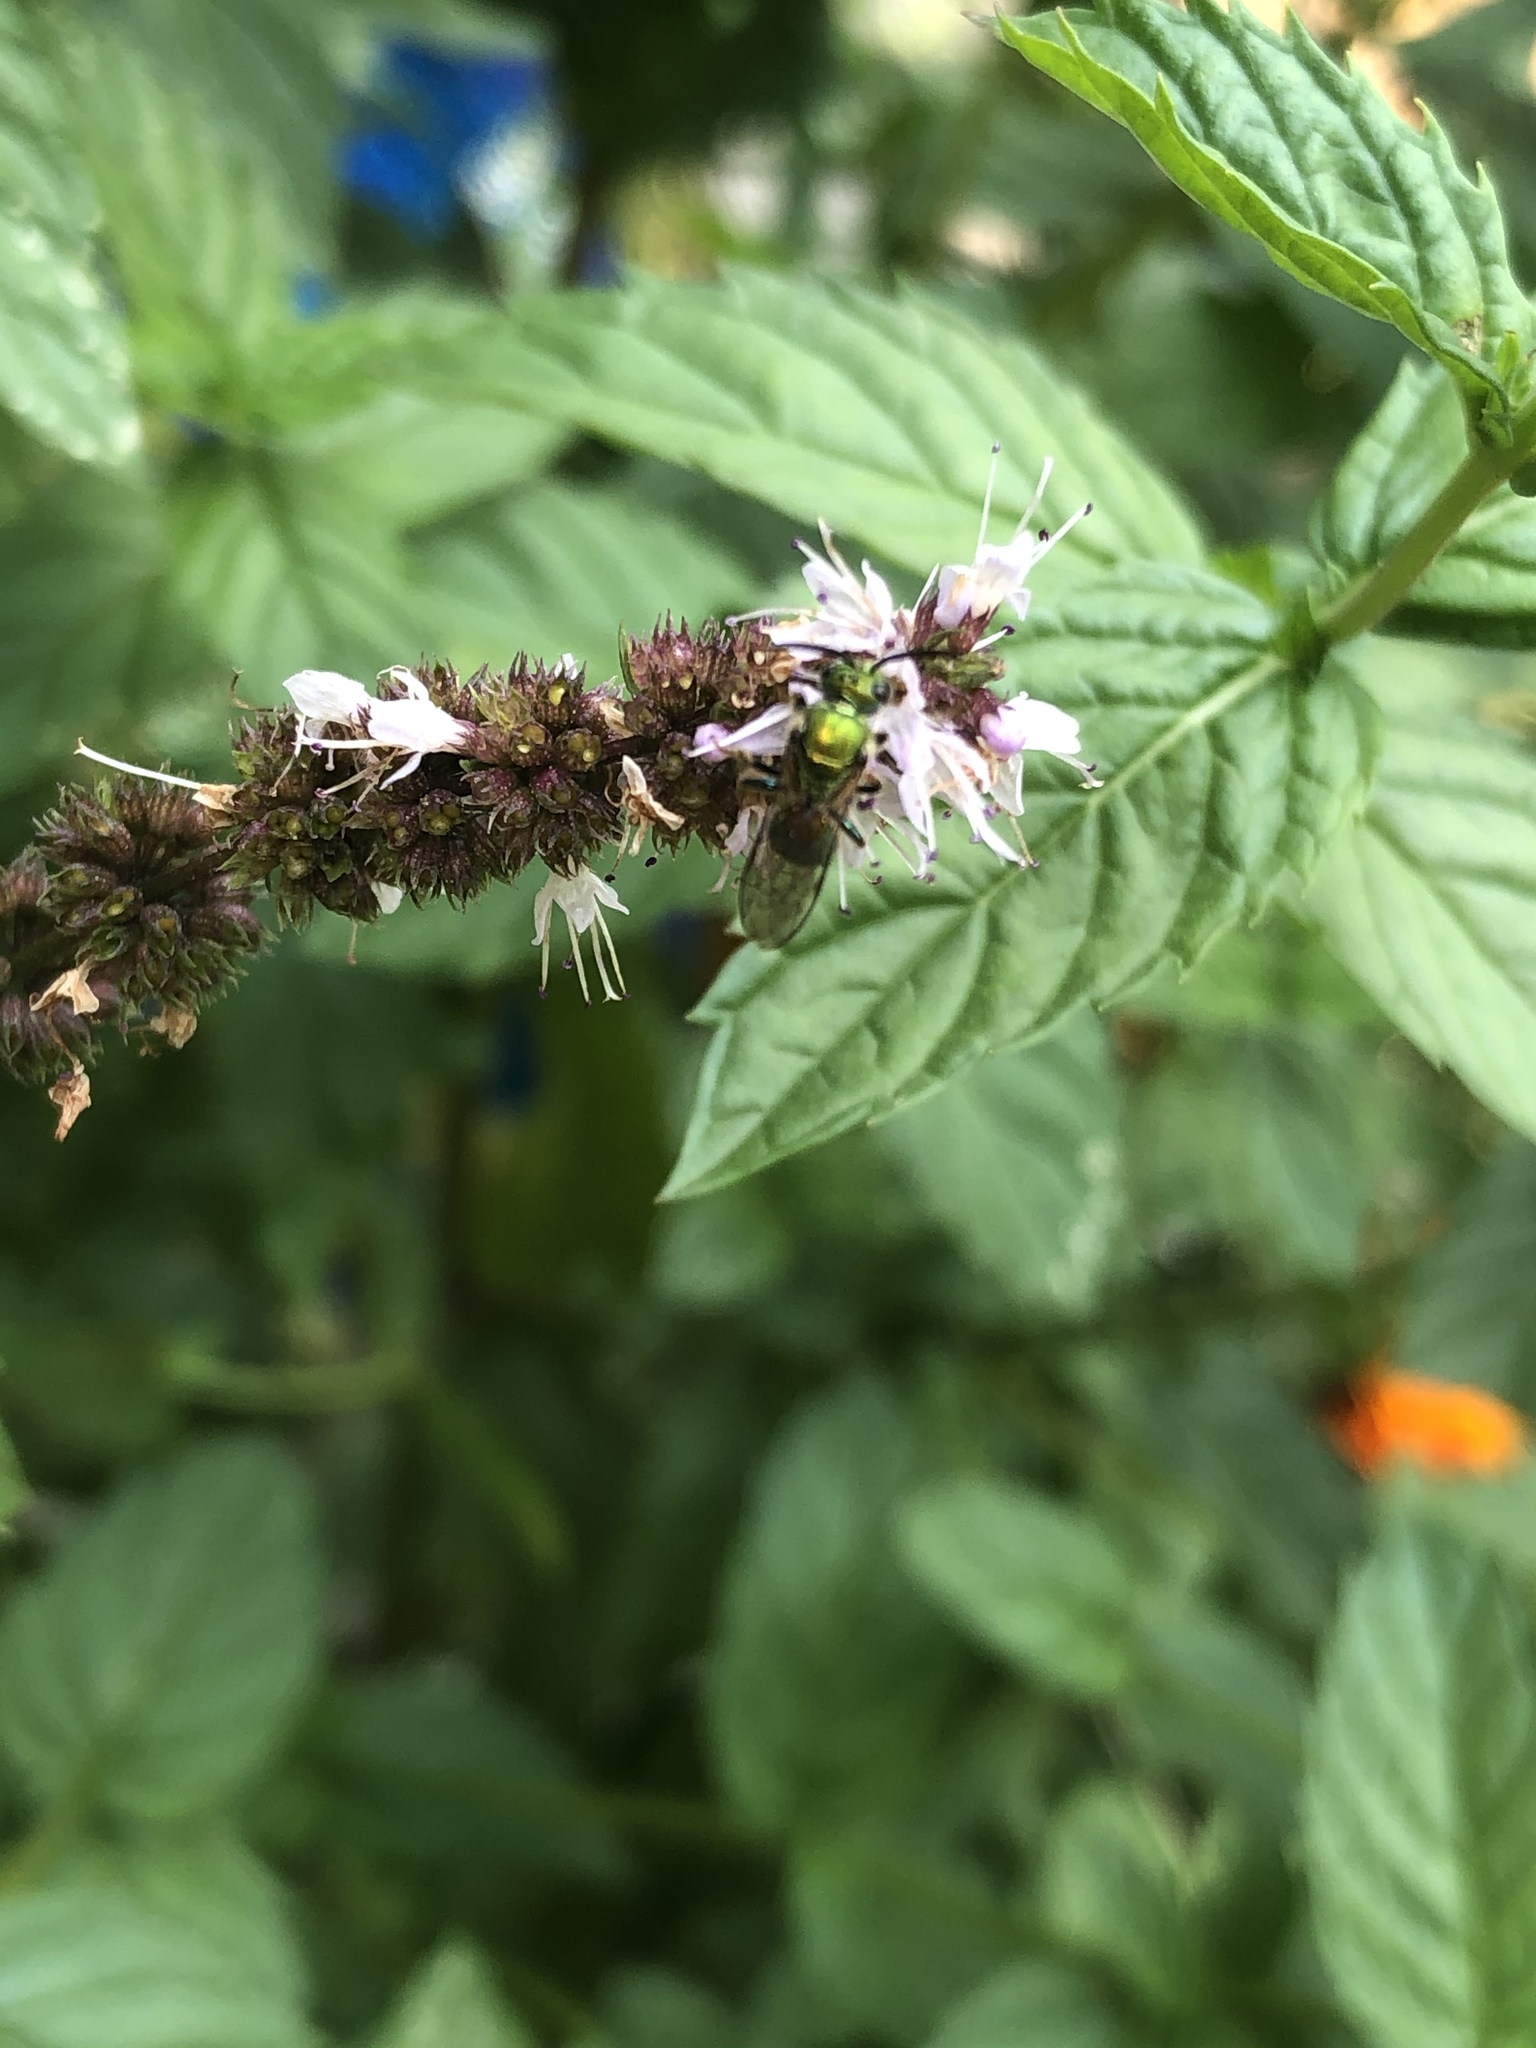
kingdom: Animalia
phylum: Arthropoda
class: Insecta
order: Hymenoptera
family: Halictidae
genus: Augochlora
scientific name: Augochlora pura
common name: Pure green sweat bee
